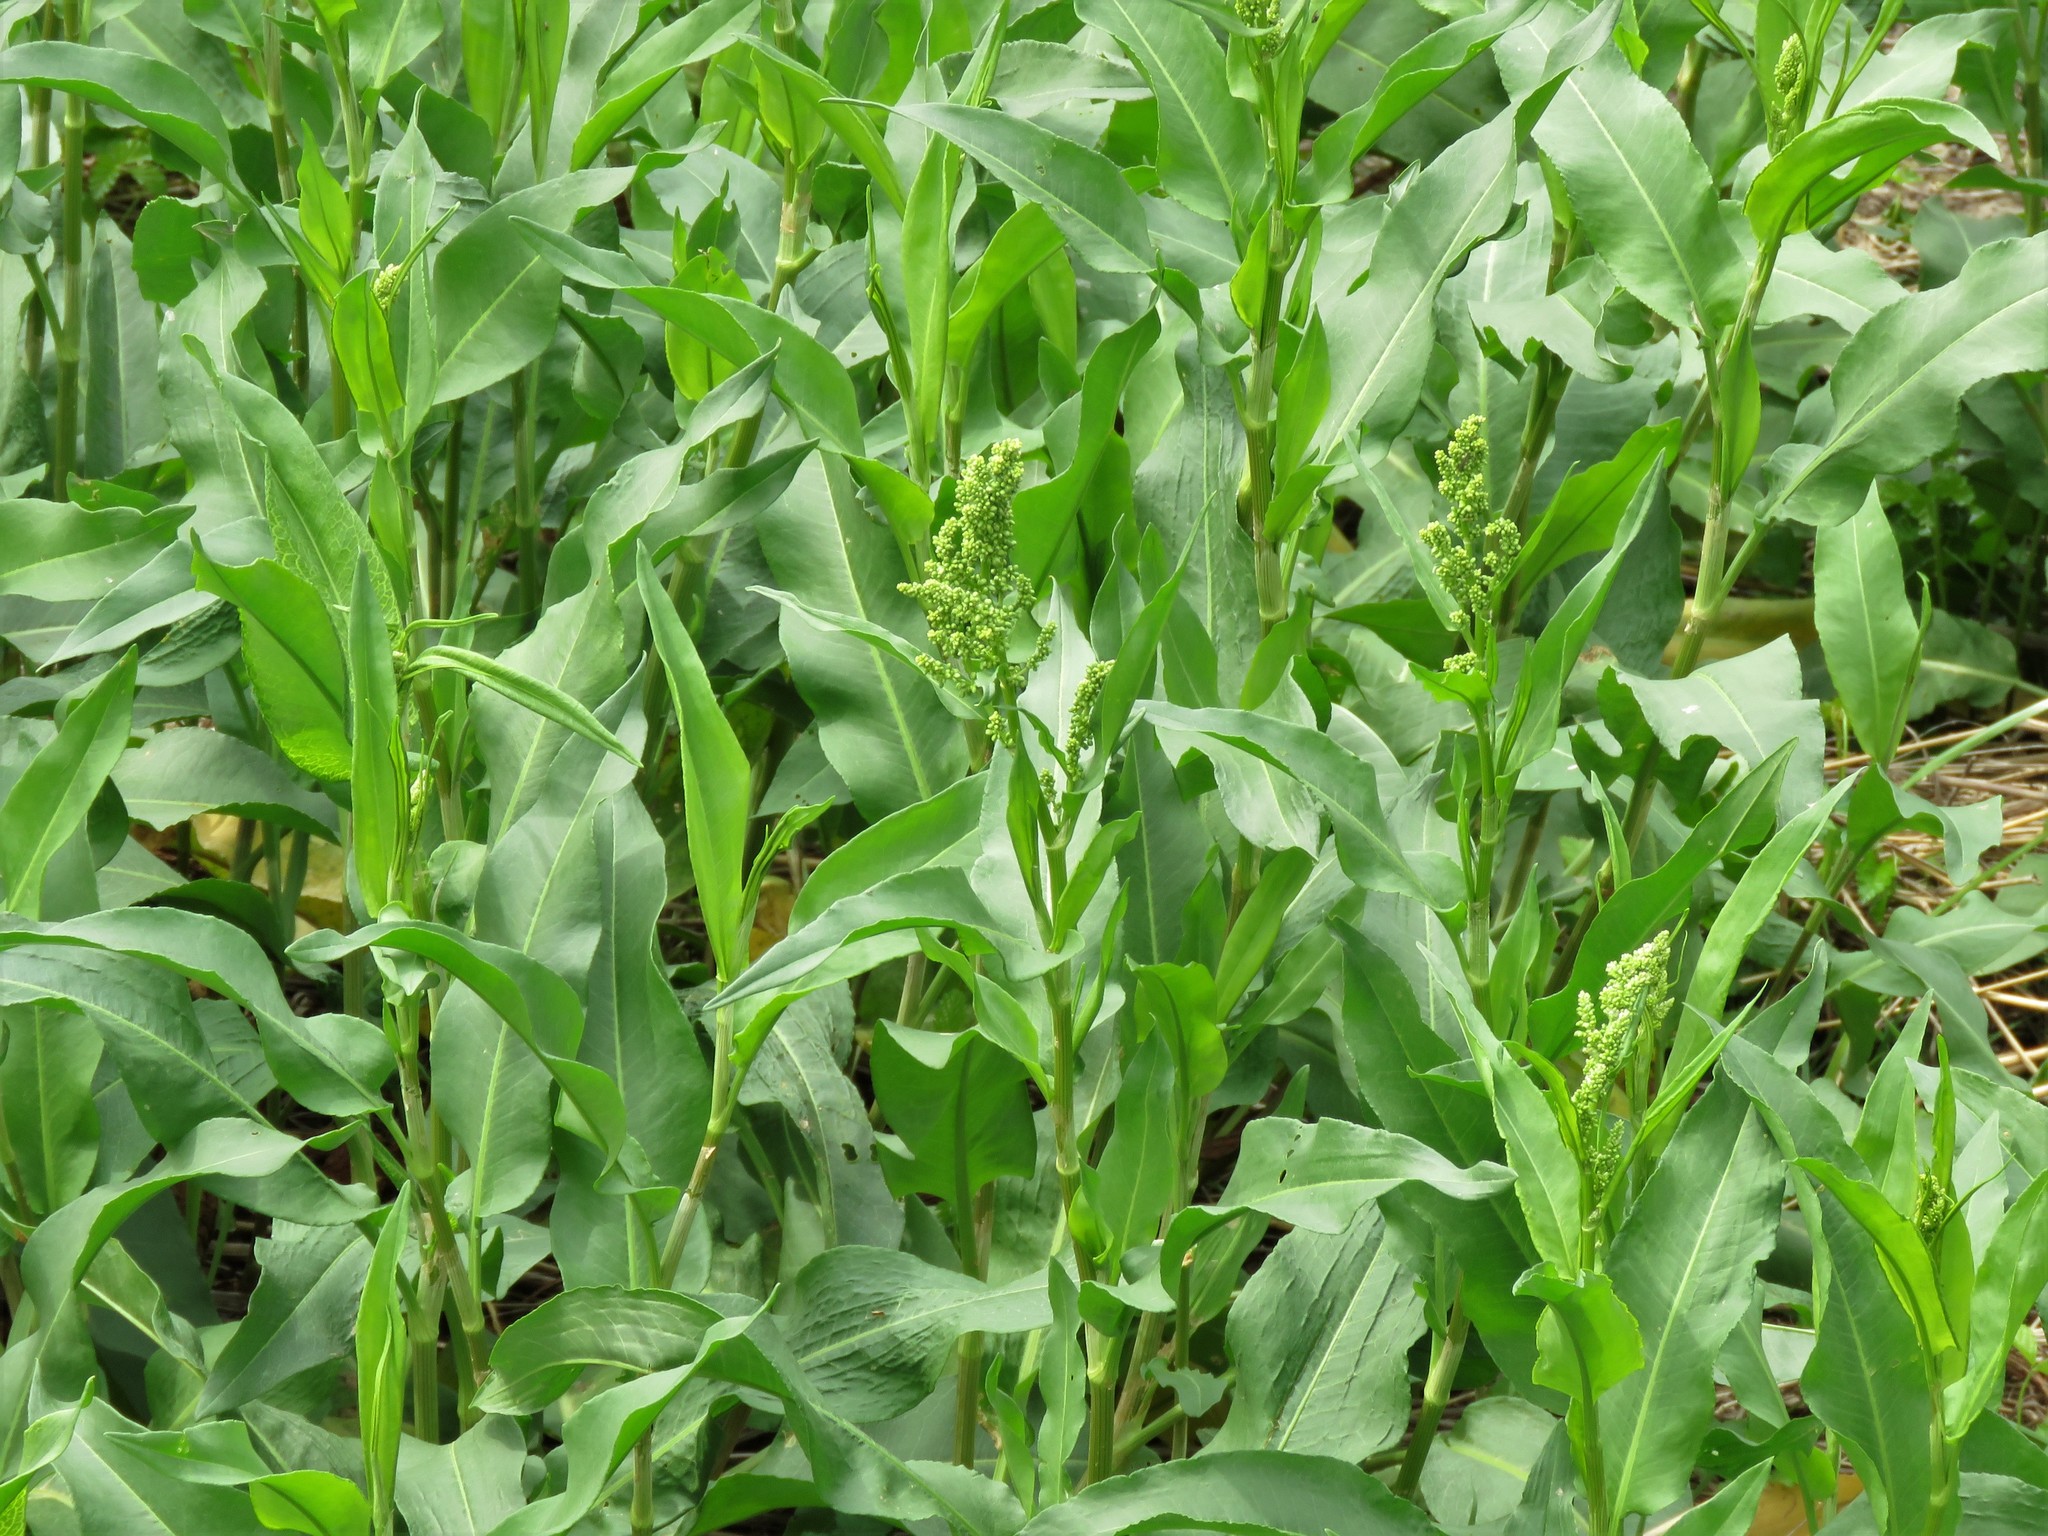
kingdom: Plantae
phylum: Tracheophyta
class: Magnoliopsida
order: Caryophyllales
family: Polygonaceae
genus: Rumex
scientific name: Rumex crispus
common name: Curled dock
